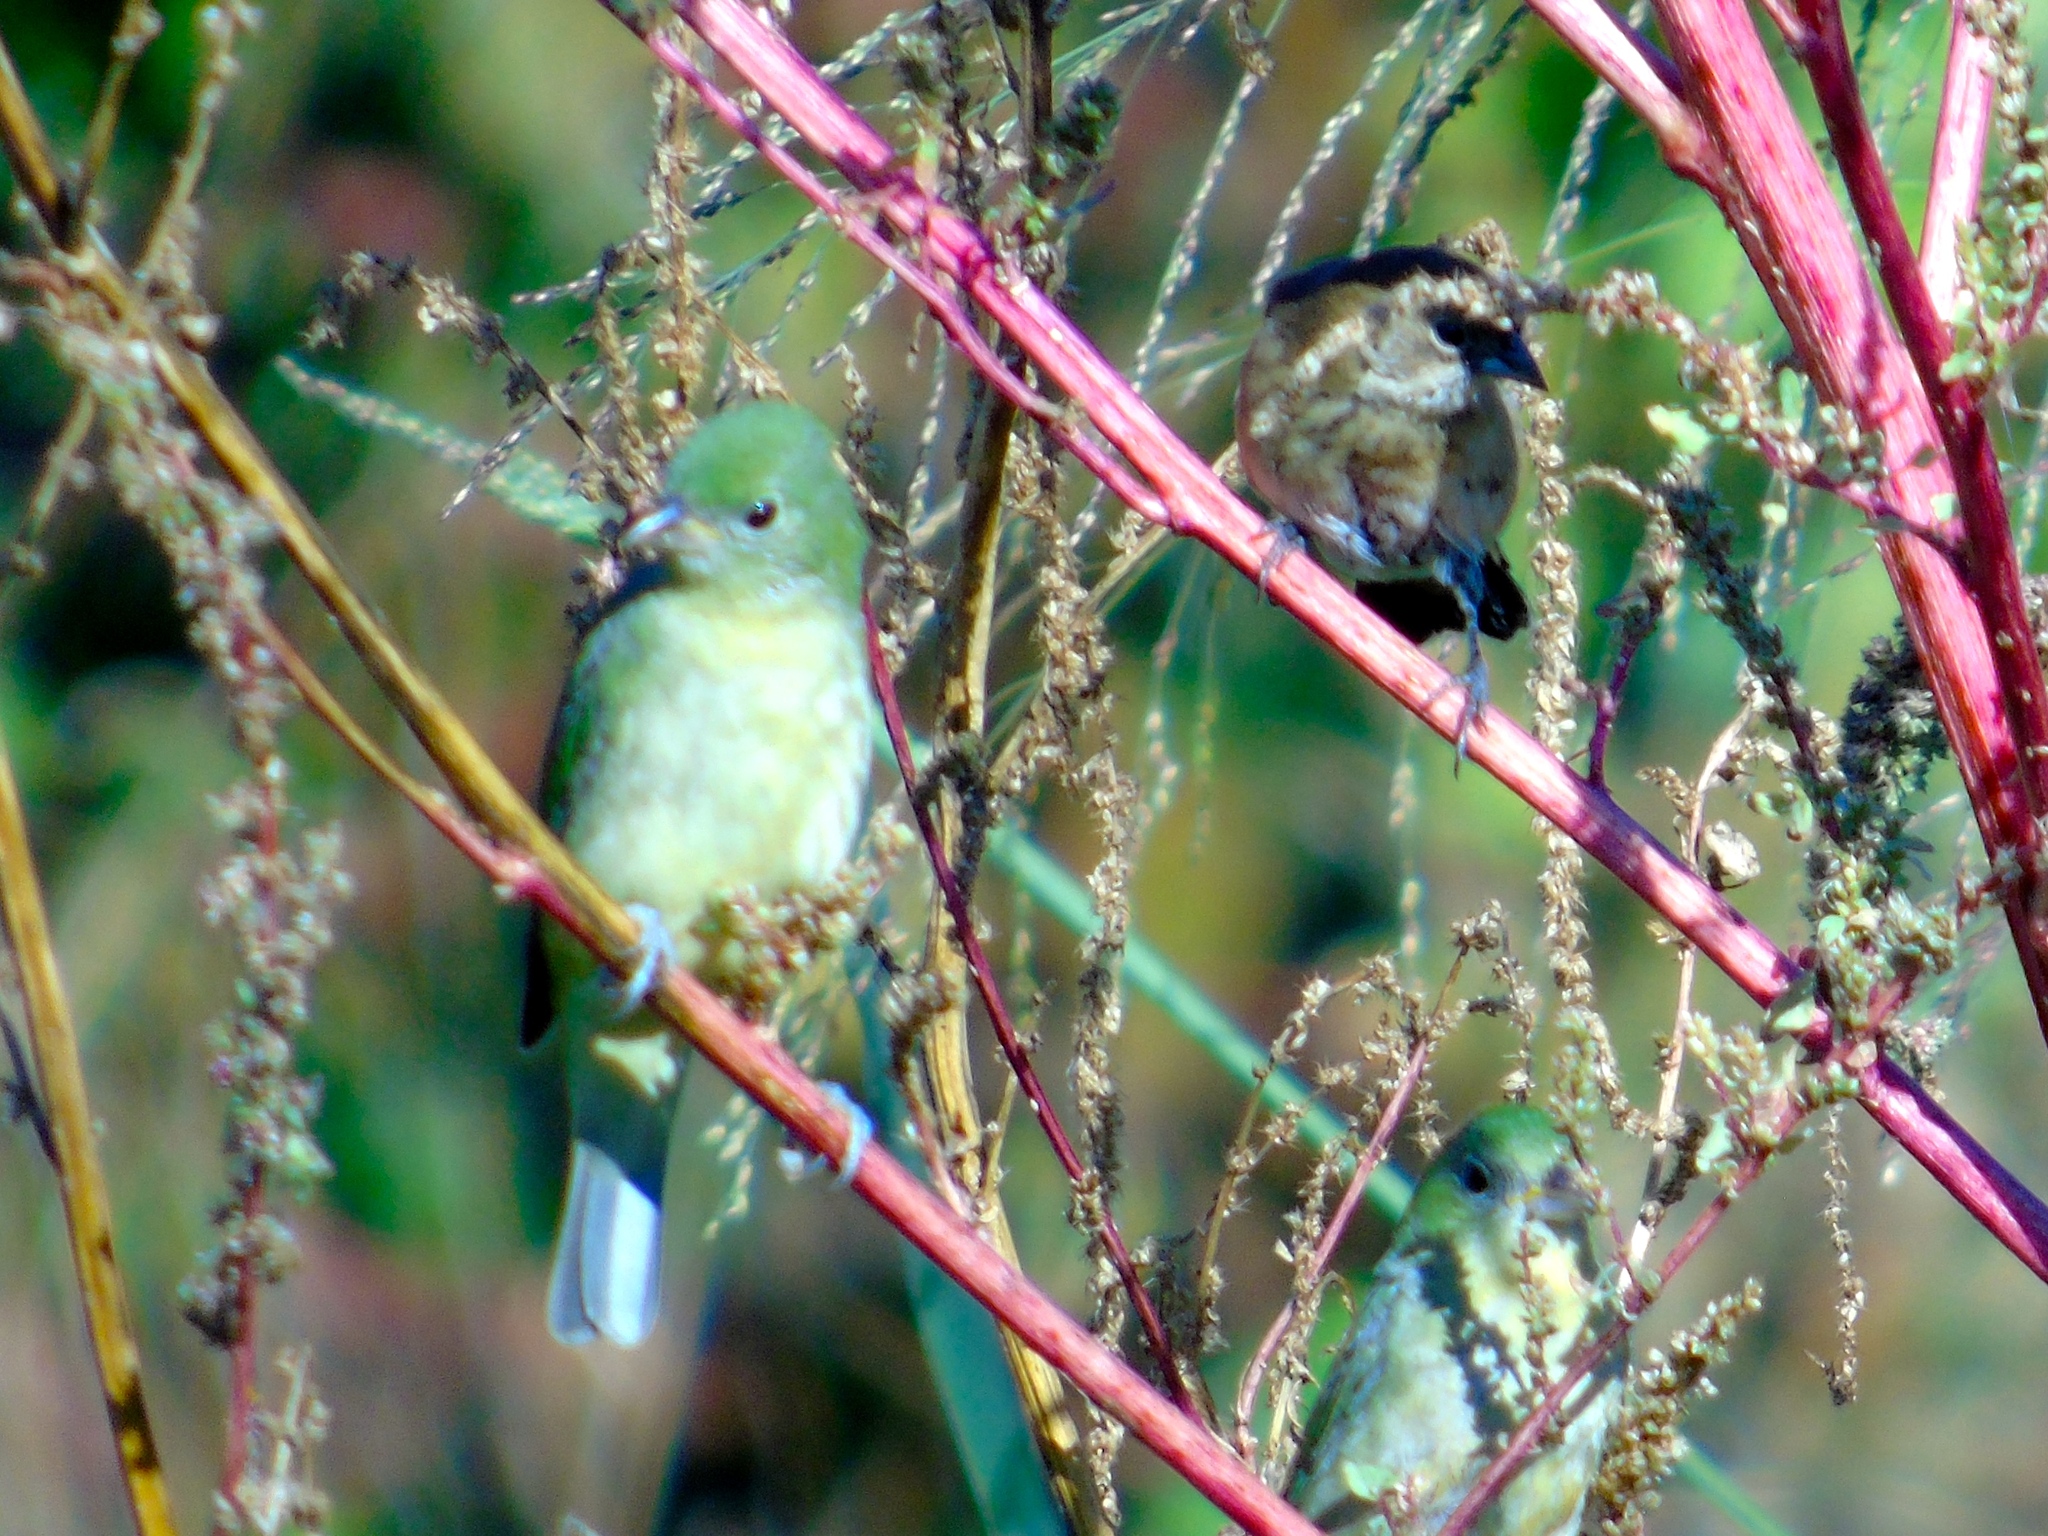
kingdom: Animalia
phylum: Chordata
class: Aves
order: Passeriformes
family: Cardinalidae
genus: Passerina
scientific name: Passerina ciris
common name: Painted bunting
